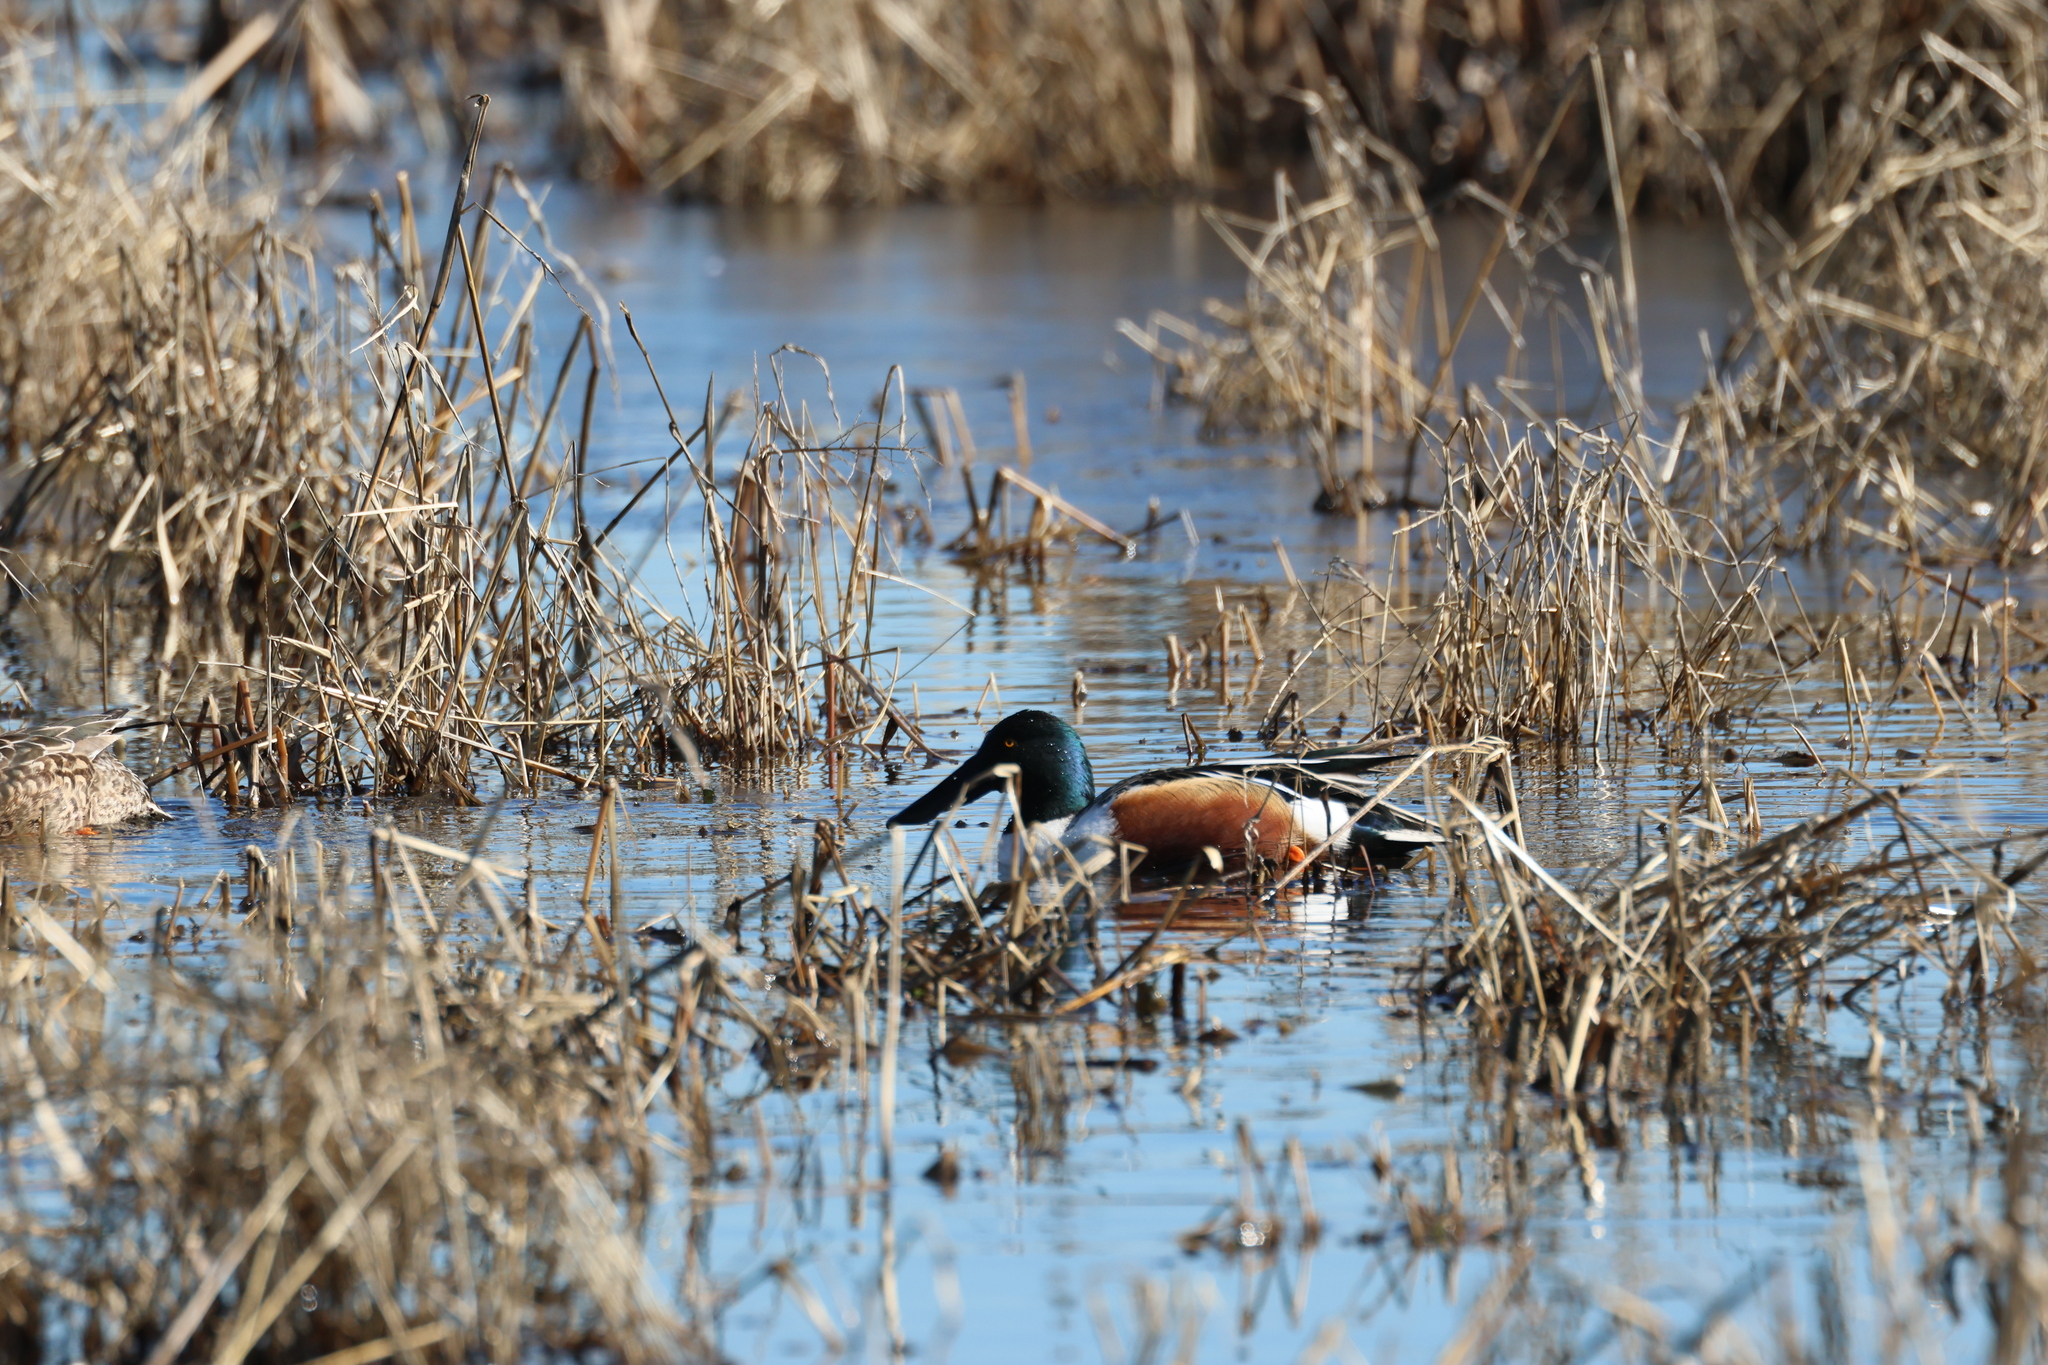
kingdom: Animalia
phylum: Chordata
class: Aves
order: Anseriformes
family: Anatidae
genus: Spatula
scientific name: Spatula clypeata
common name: Northern shoveler
